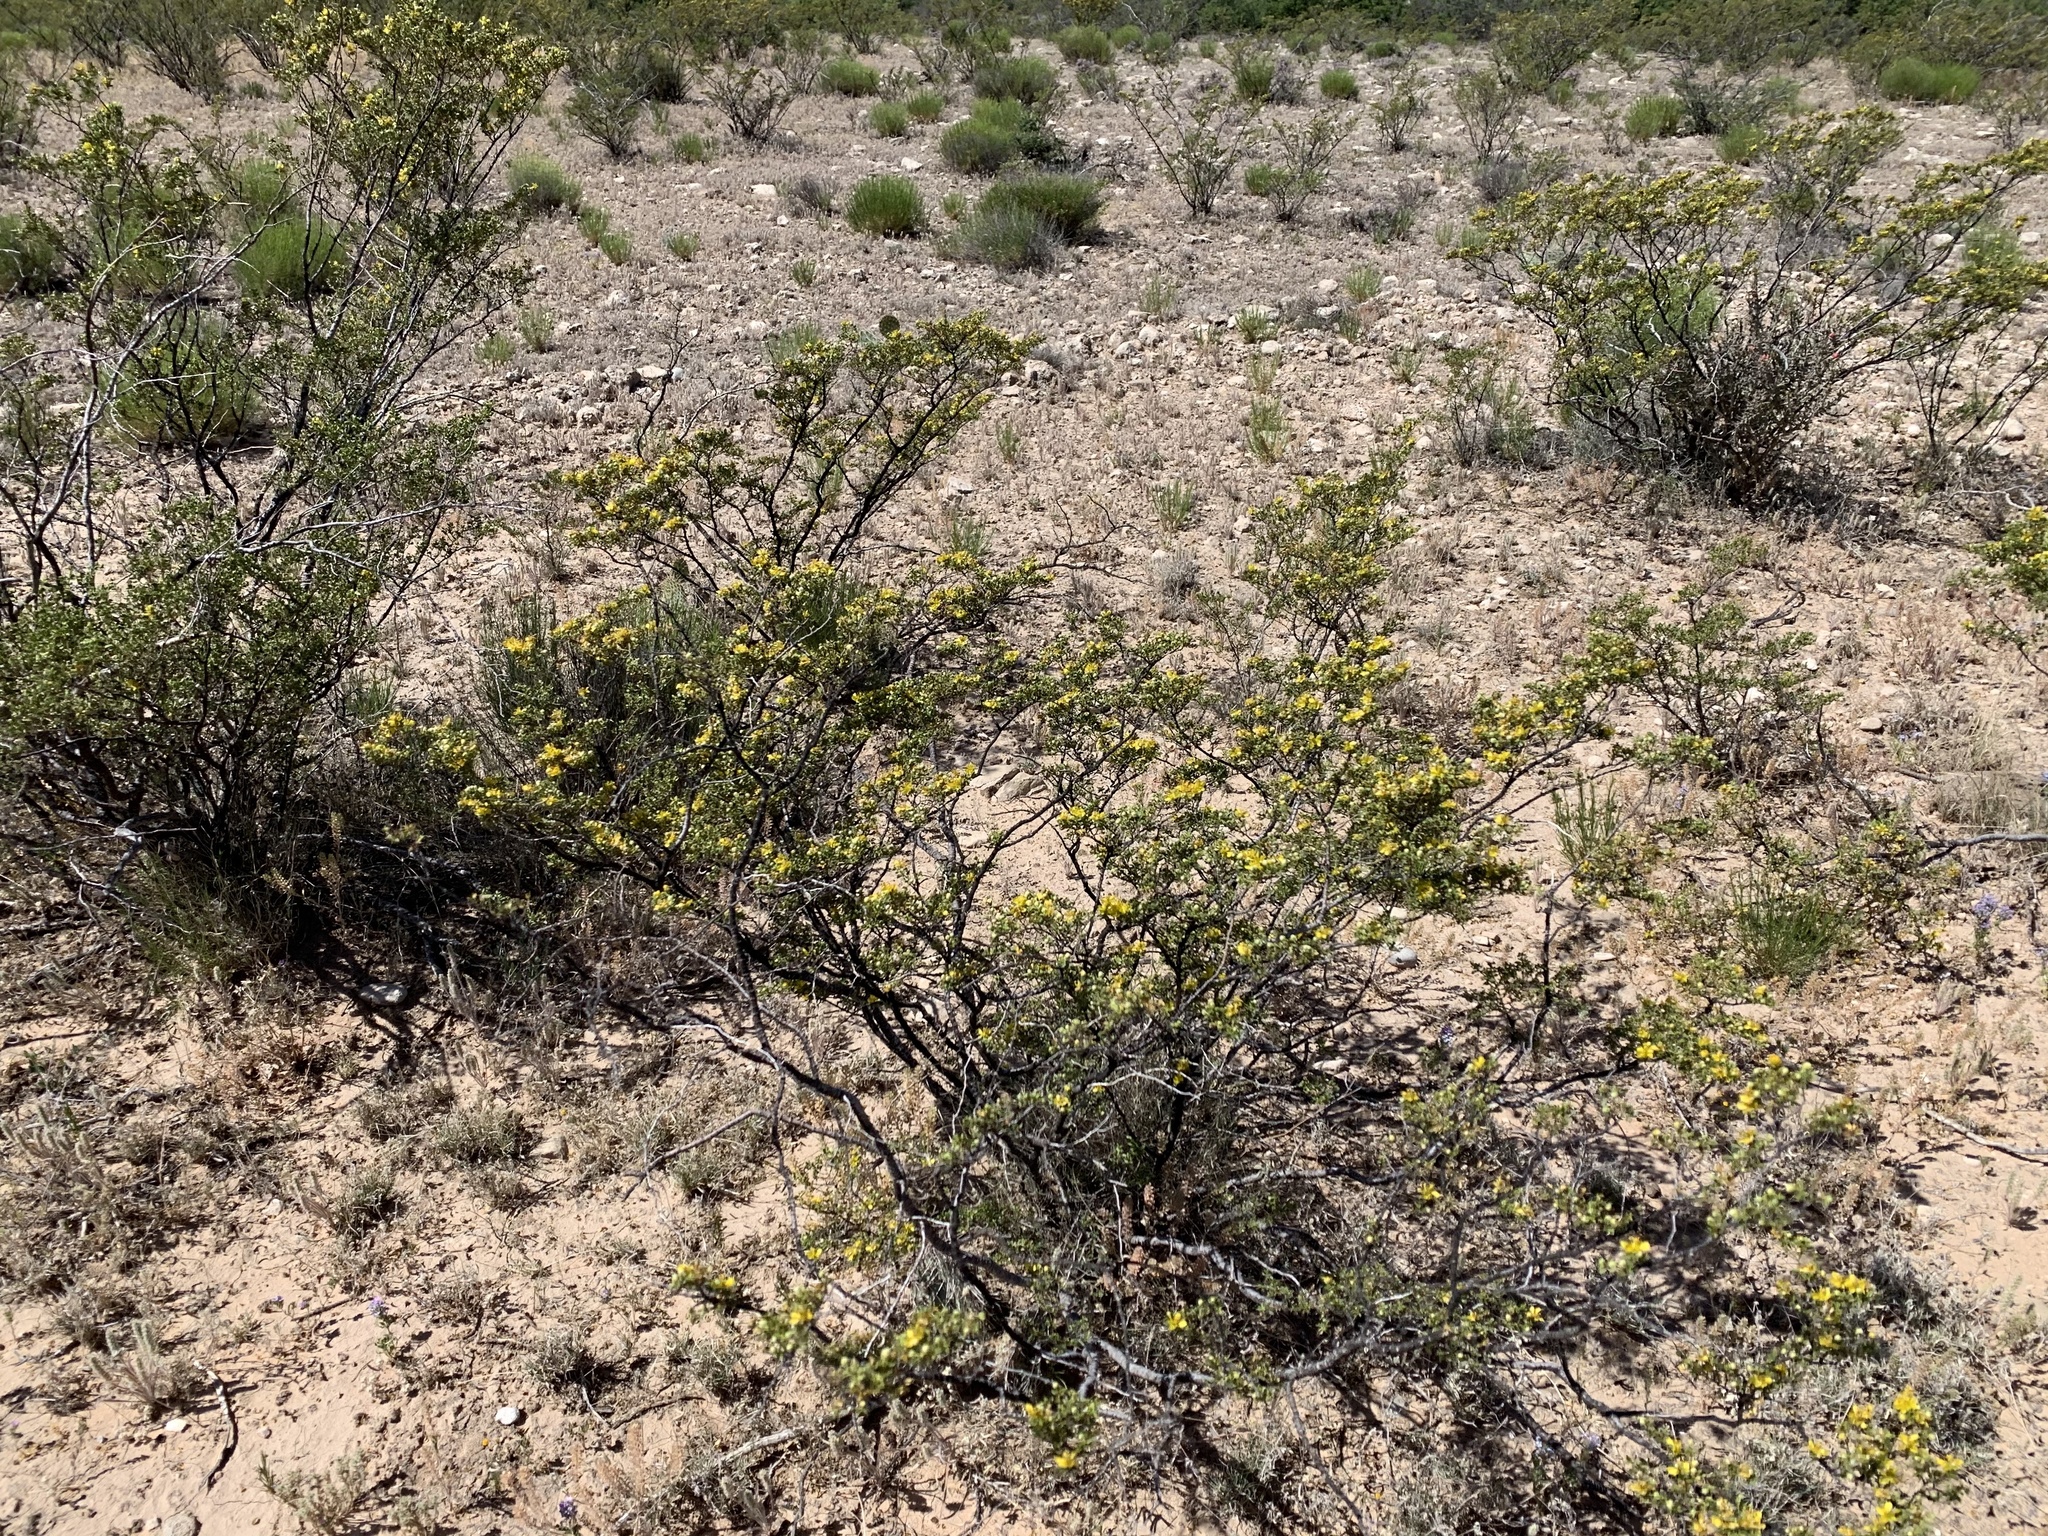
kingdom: Plantae
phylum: Tracheophyta
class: Magnoliopsida
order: Zygophyllales
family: Zygophyllaceae
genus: Larrea
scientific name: Larrea tridentata
